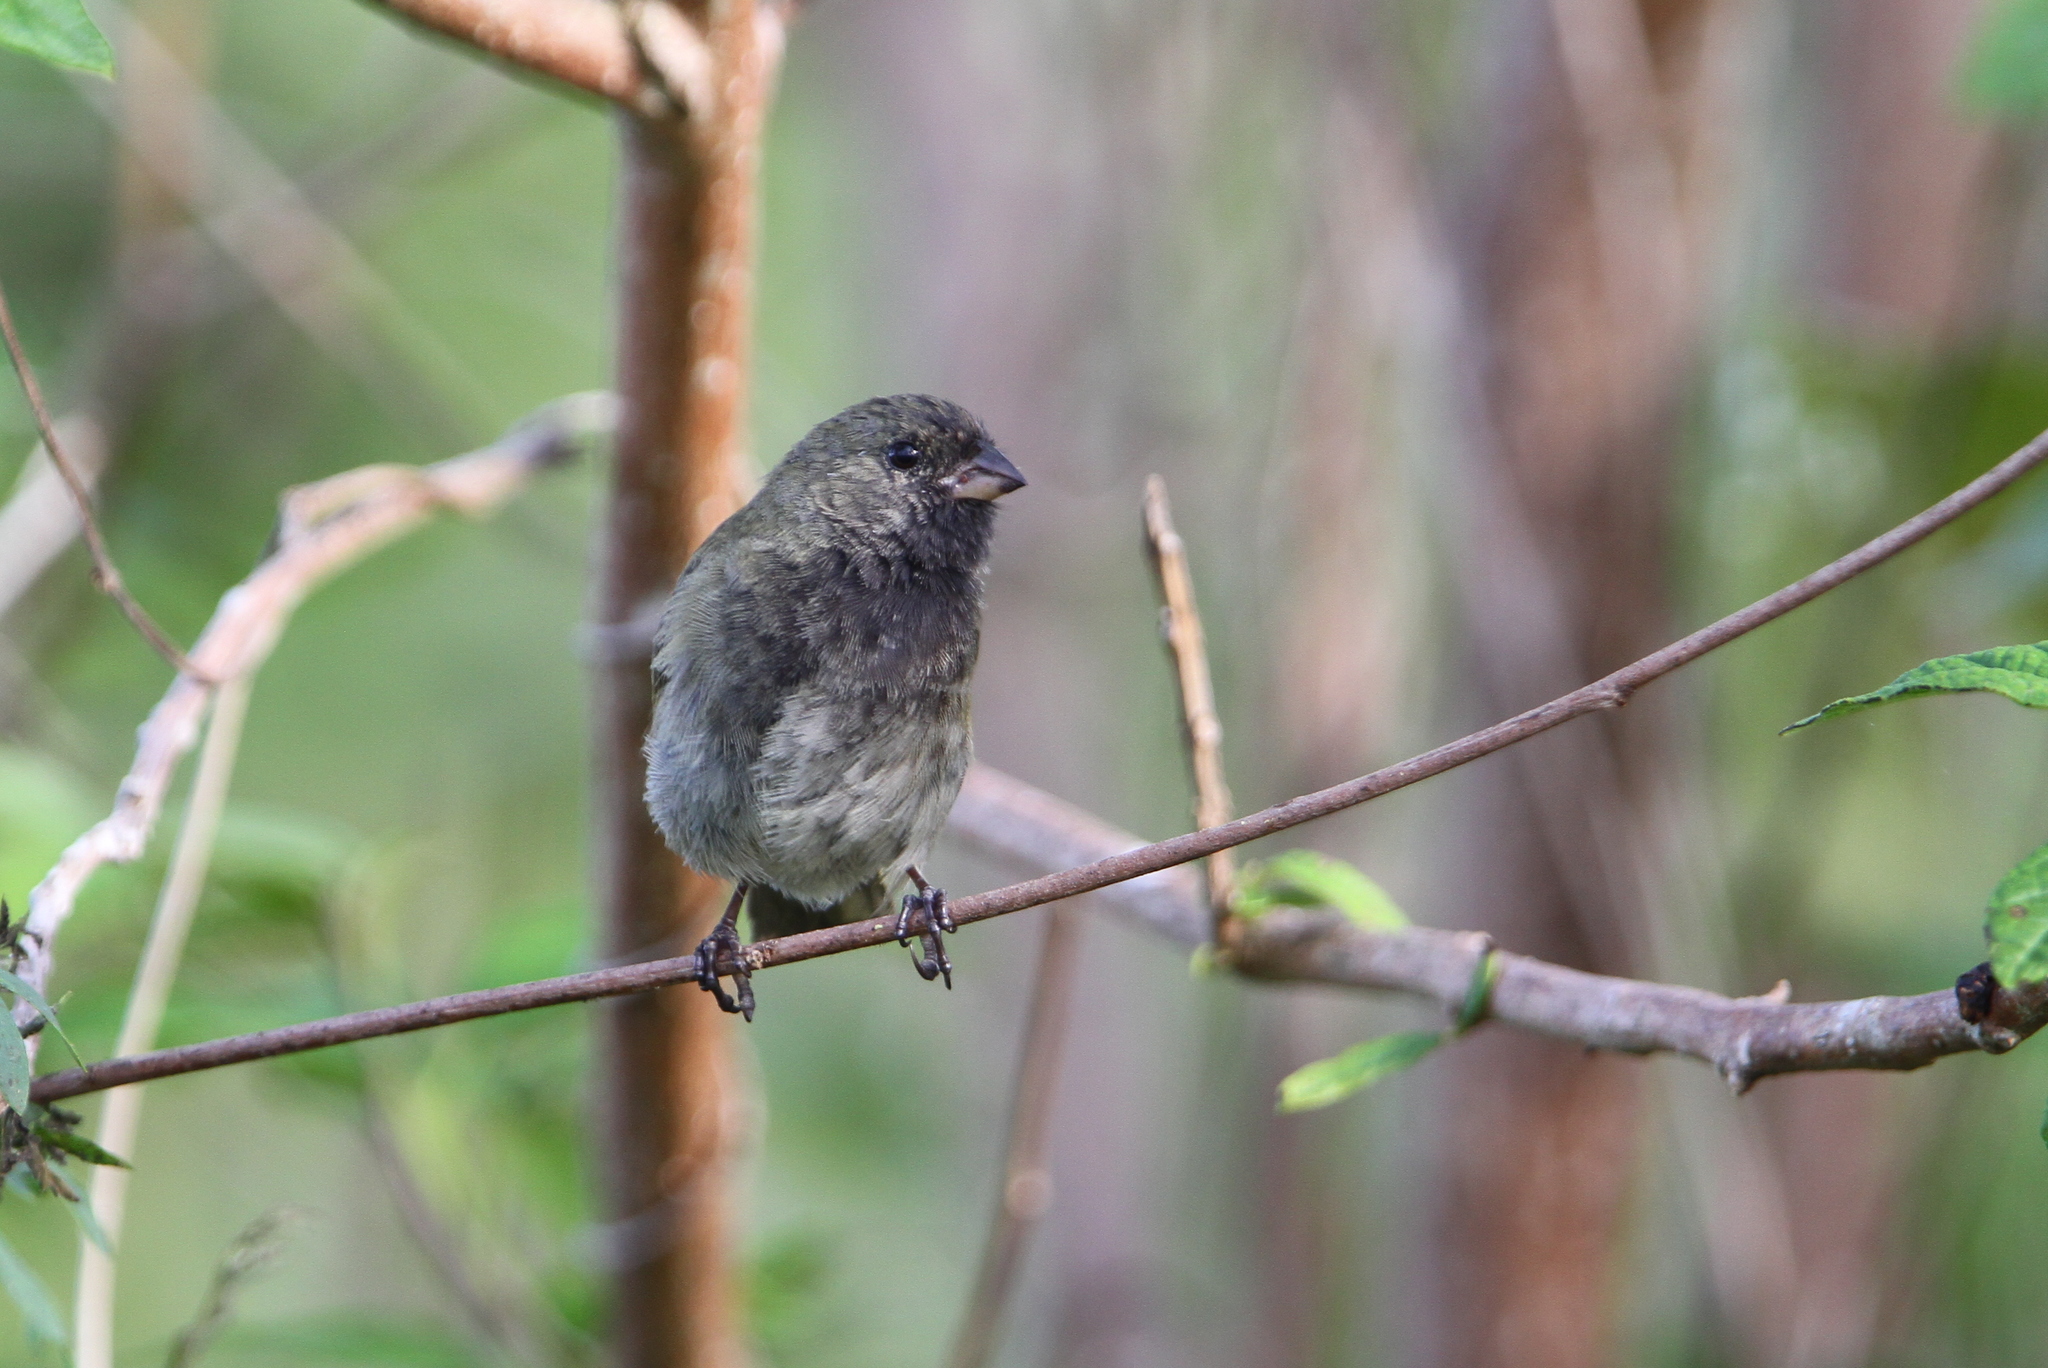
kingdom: Animalia
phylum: Chordata
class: Aves
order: Passeriformes
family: Thraupidae
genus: Melanospiza
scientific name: Melanospiza bicolor
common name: Black-faced grassquit
